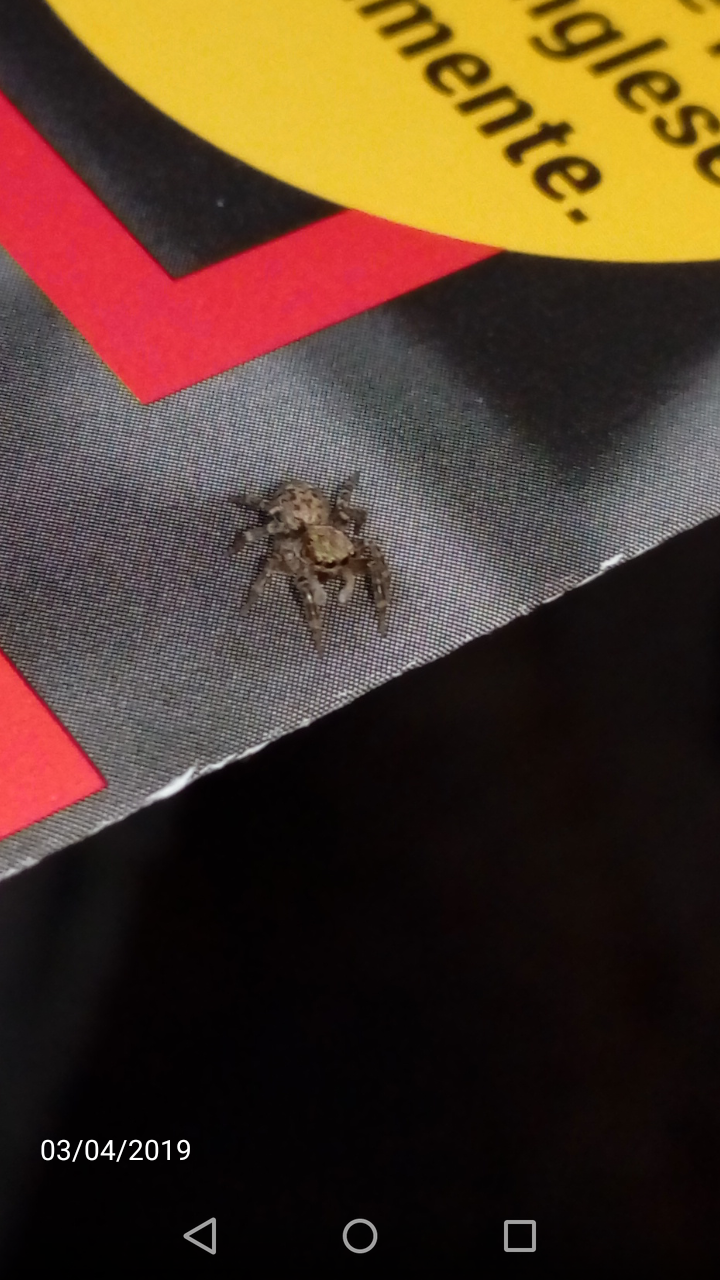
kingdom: Animalia
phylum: Arthropoda
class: Arachnida
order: Araneae
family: Salticidae
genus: Pseudeuophrys
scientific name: Pseudeuophrys vafra
